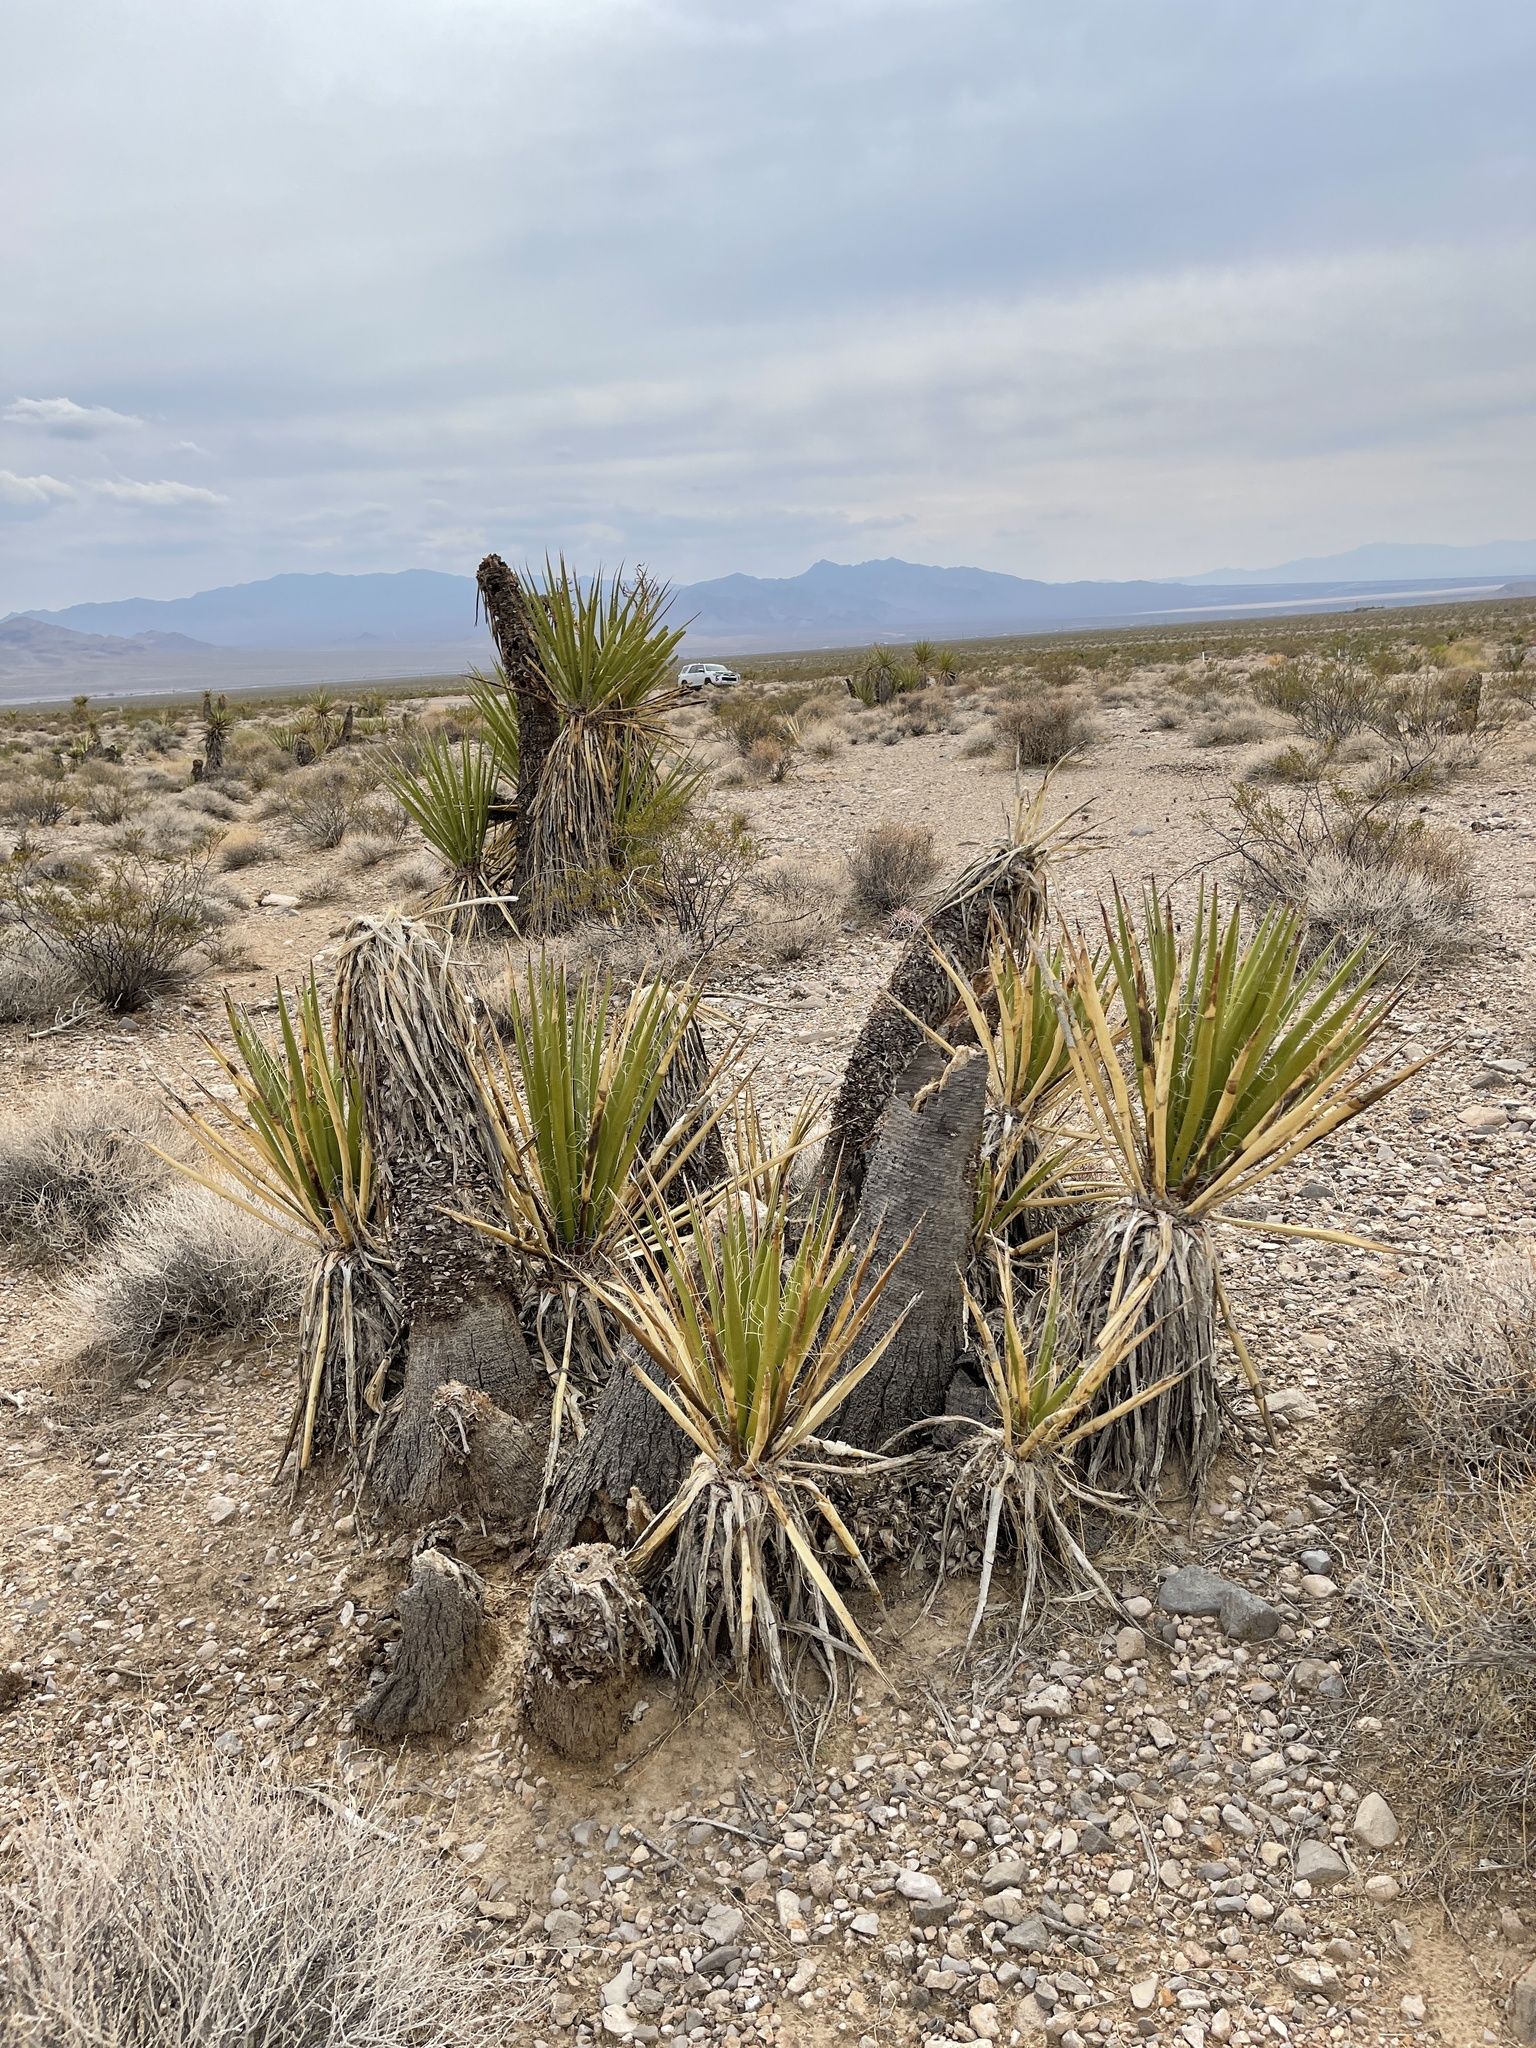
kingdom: Plantae
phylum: Tracheophyta
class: Liliopsida
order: Asparagales
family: Asparagaceae
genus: Yucca
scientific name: Yucca schidigera
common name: Mojave yucca
